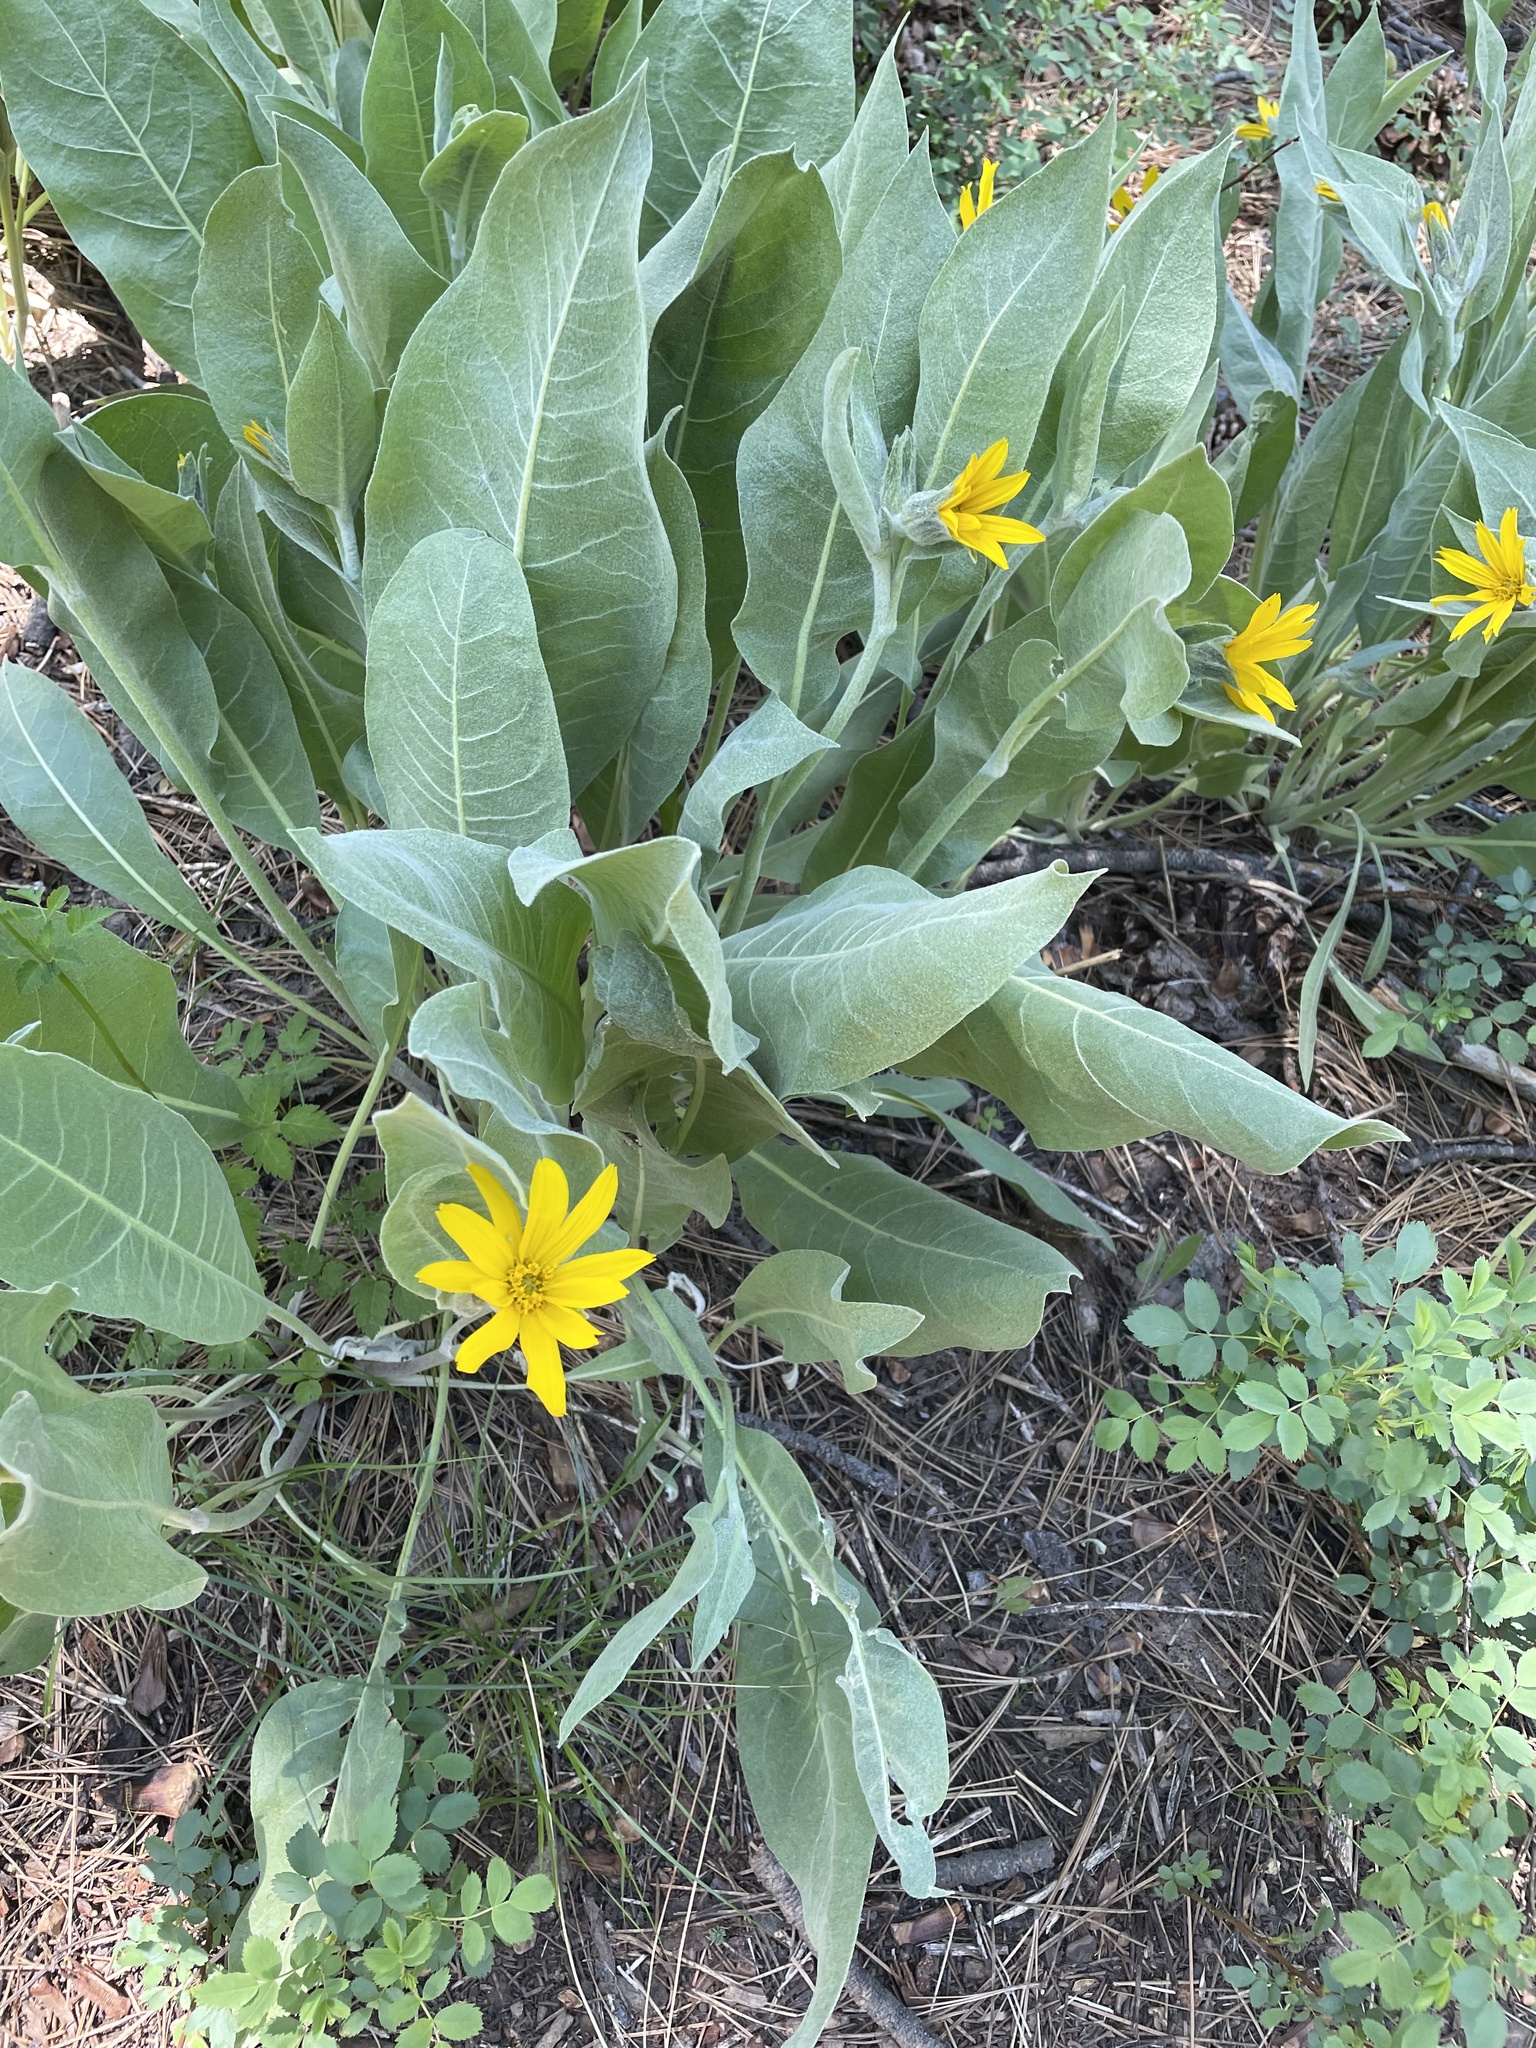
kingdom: Plantae
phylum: Tracheophyta
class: Magnoliopsida
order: Asterales
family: Asteraceae
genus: Wyethia
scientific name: Wyethia mollis
